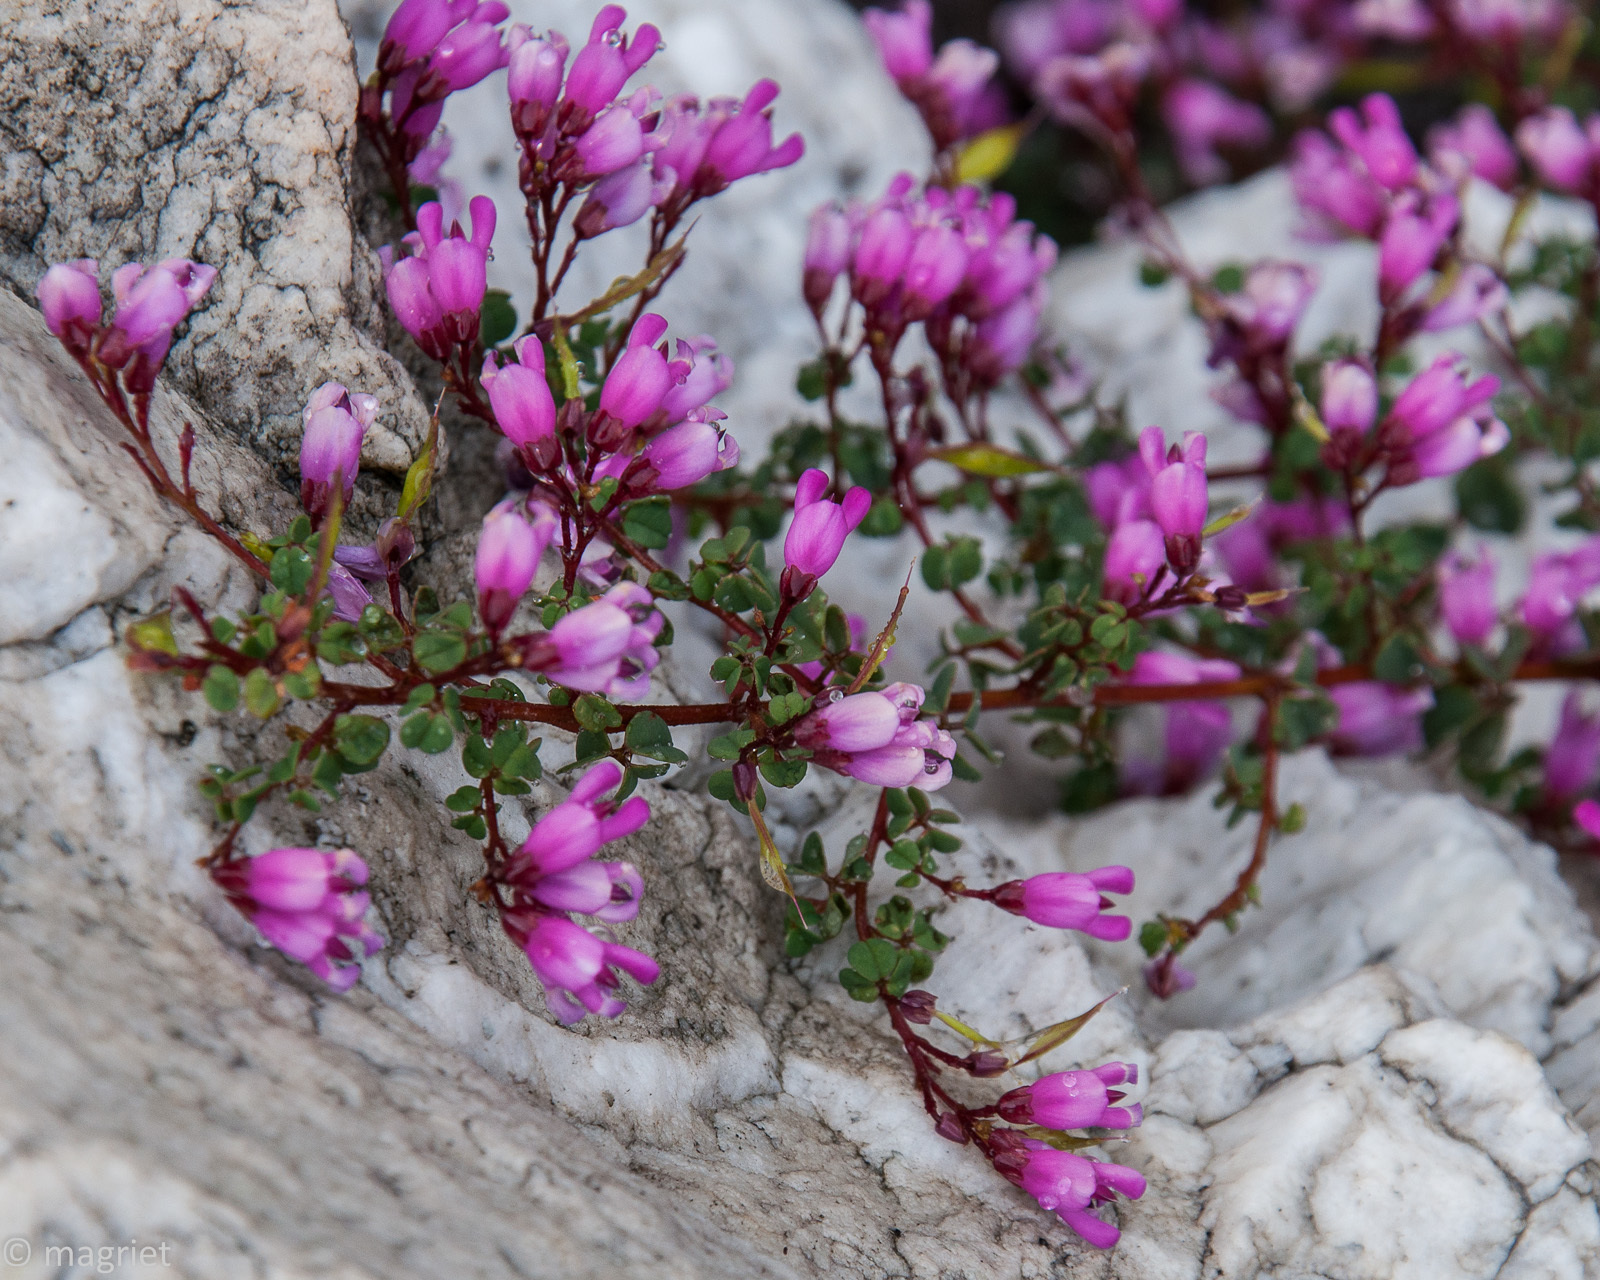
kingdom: Plantae
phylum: Tracheophyta
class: Magnoliopsida
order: Fabales
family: Fabaceae
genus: Hypocalyptus
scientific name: Hypocalyptus oxalidifolius
